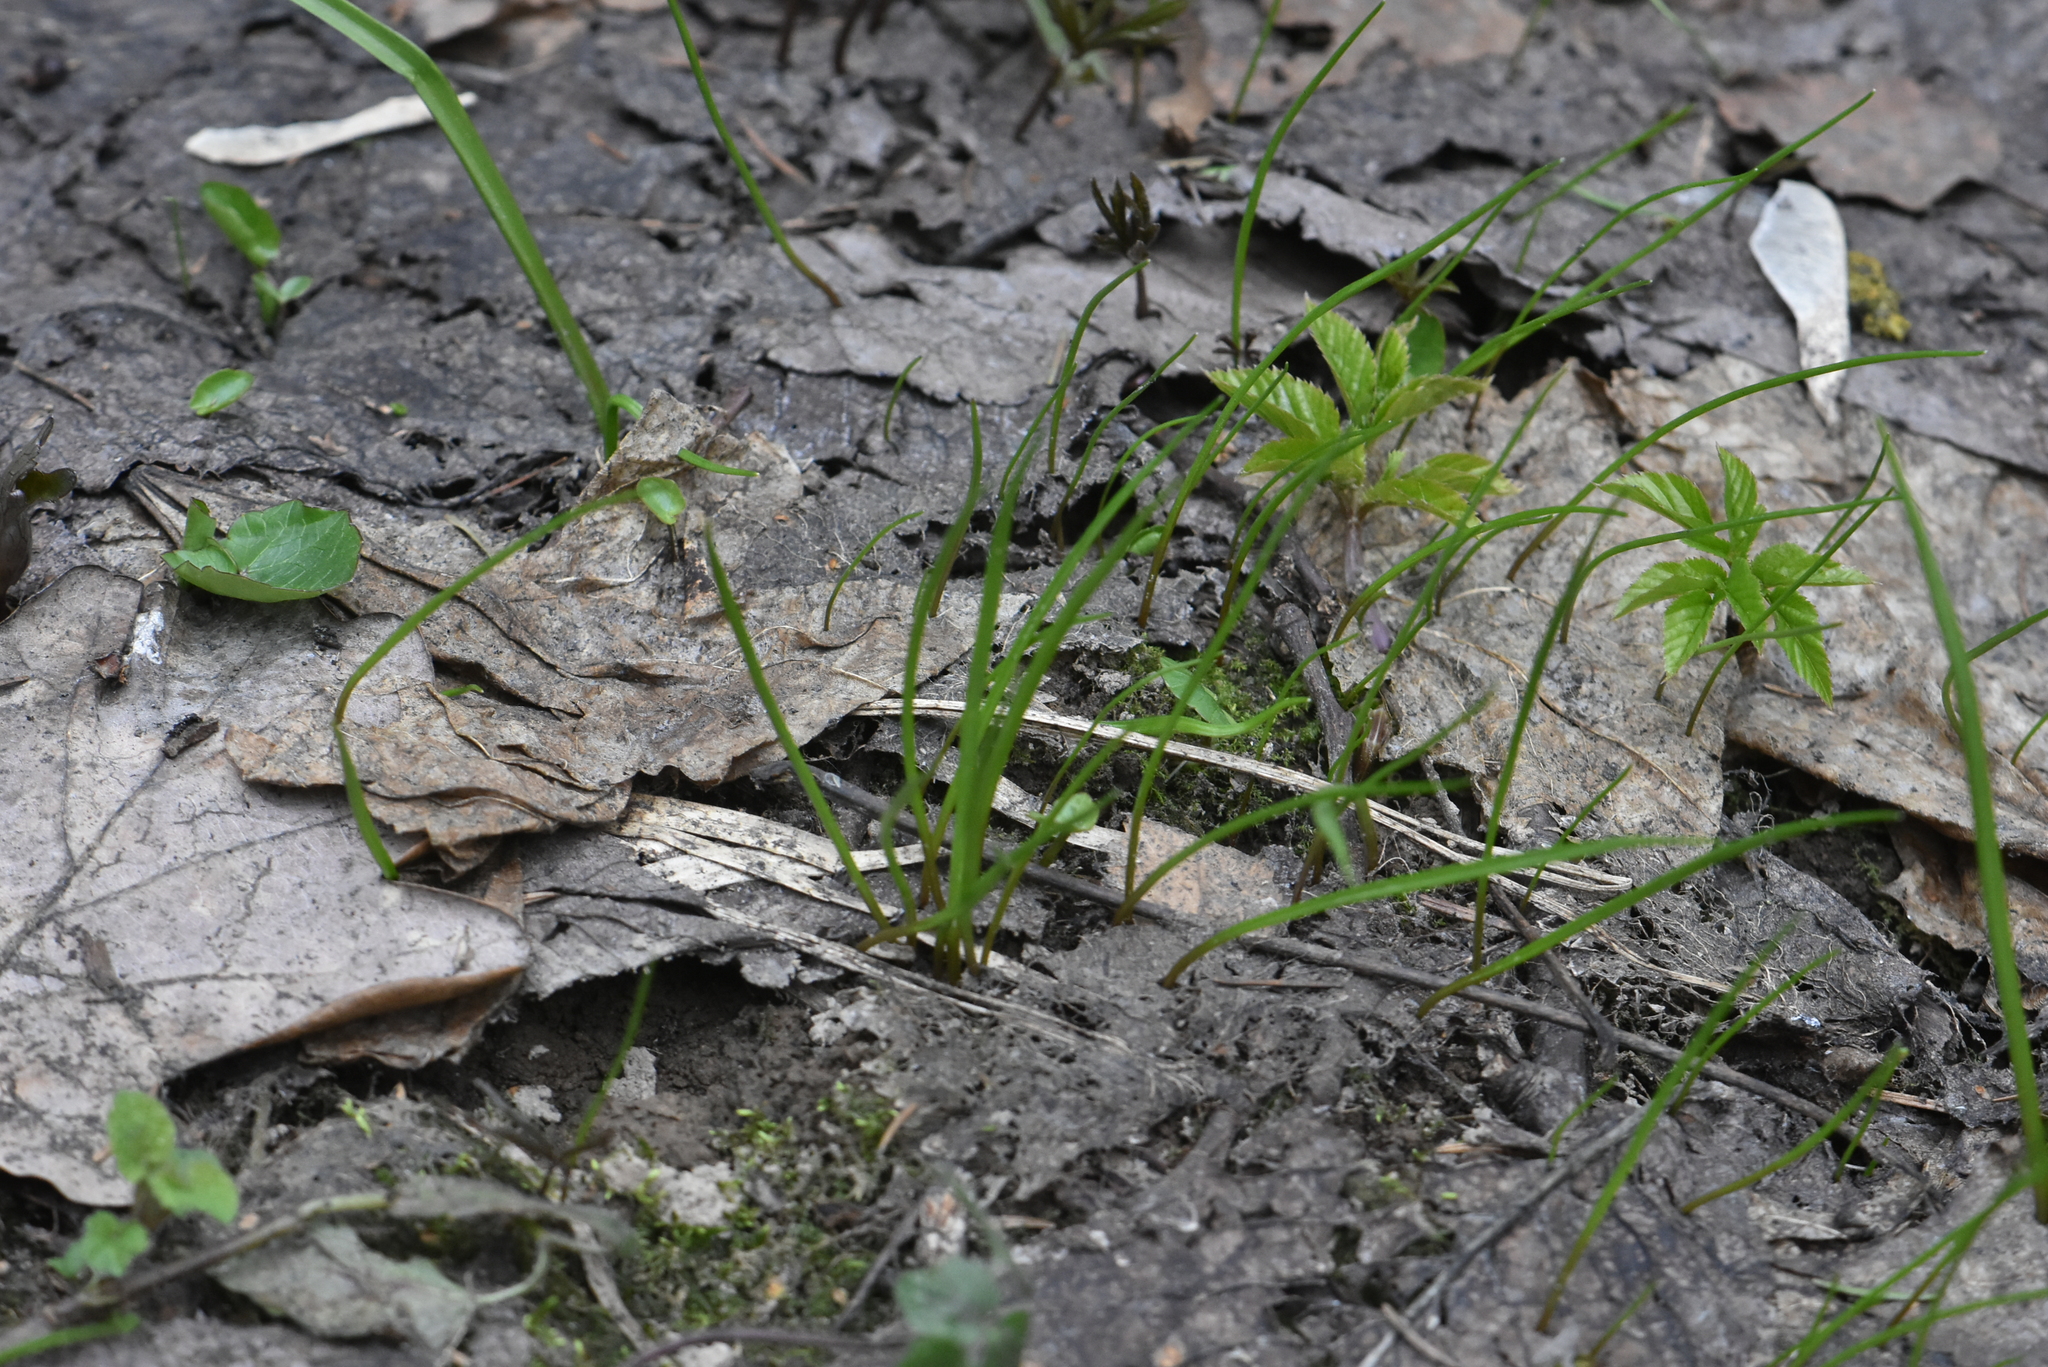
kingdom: Plantae
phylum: Tracheophyta
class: Liliopsida
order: Liliales
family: Liliaceae
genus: Gagea
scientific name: Gagea minima
